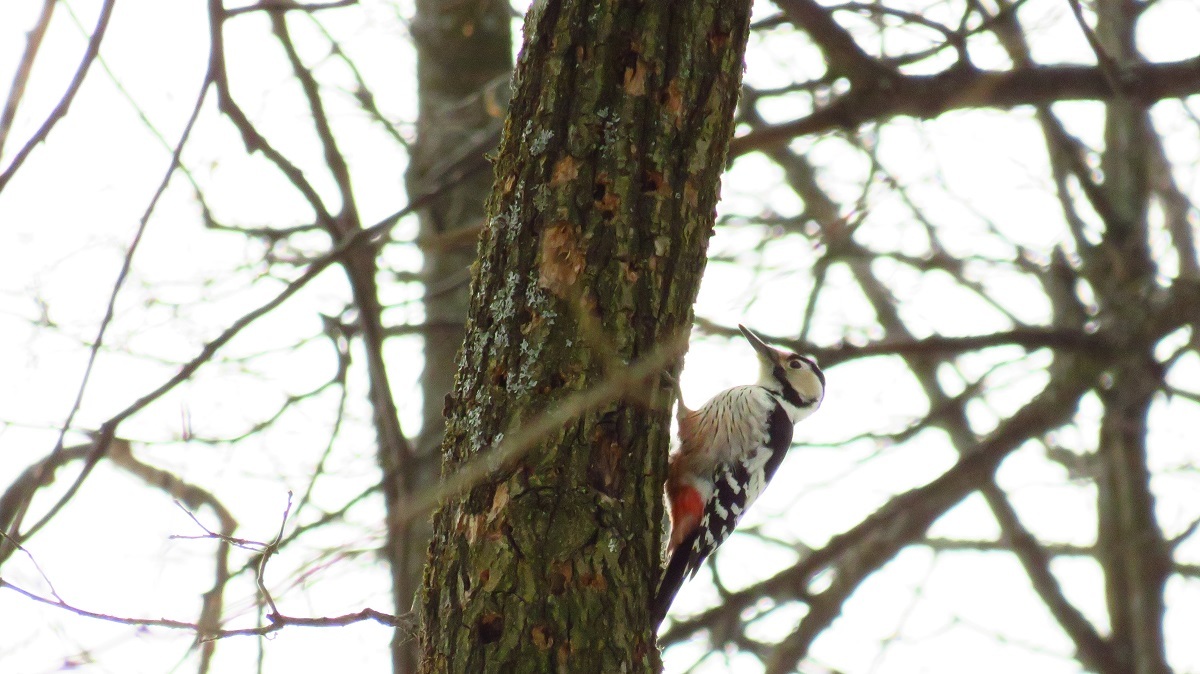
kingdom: Animalia
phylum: Chordata
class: Aves
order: Piciformes
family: Picidae
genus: Dendrocopos
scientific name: Dendrocopos leucotos
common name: White-backed woodpecker
